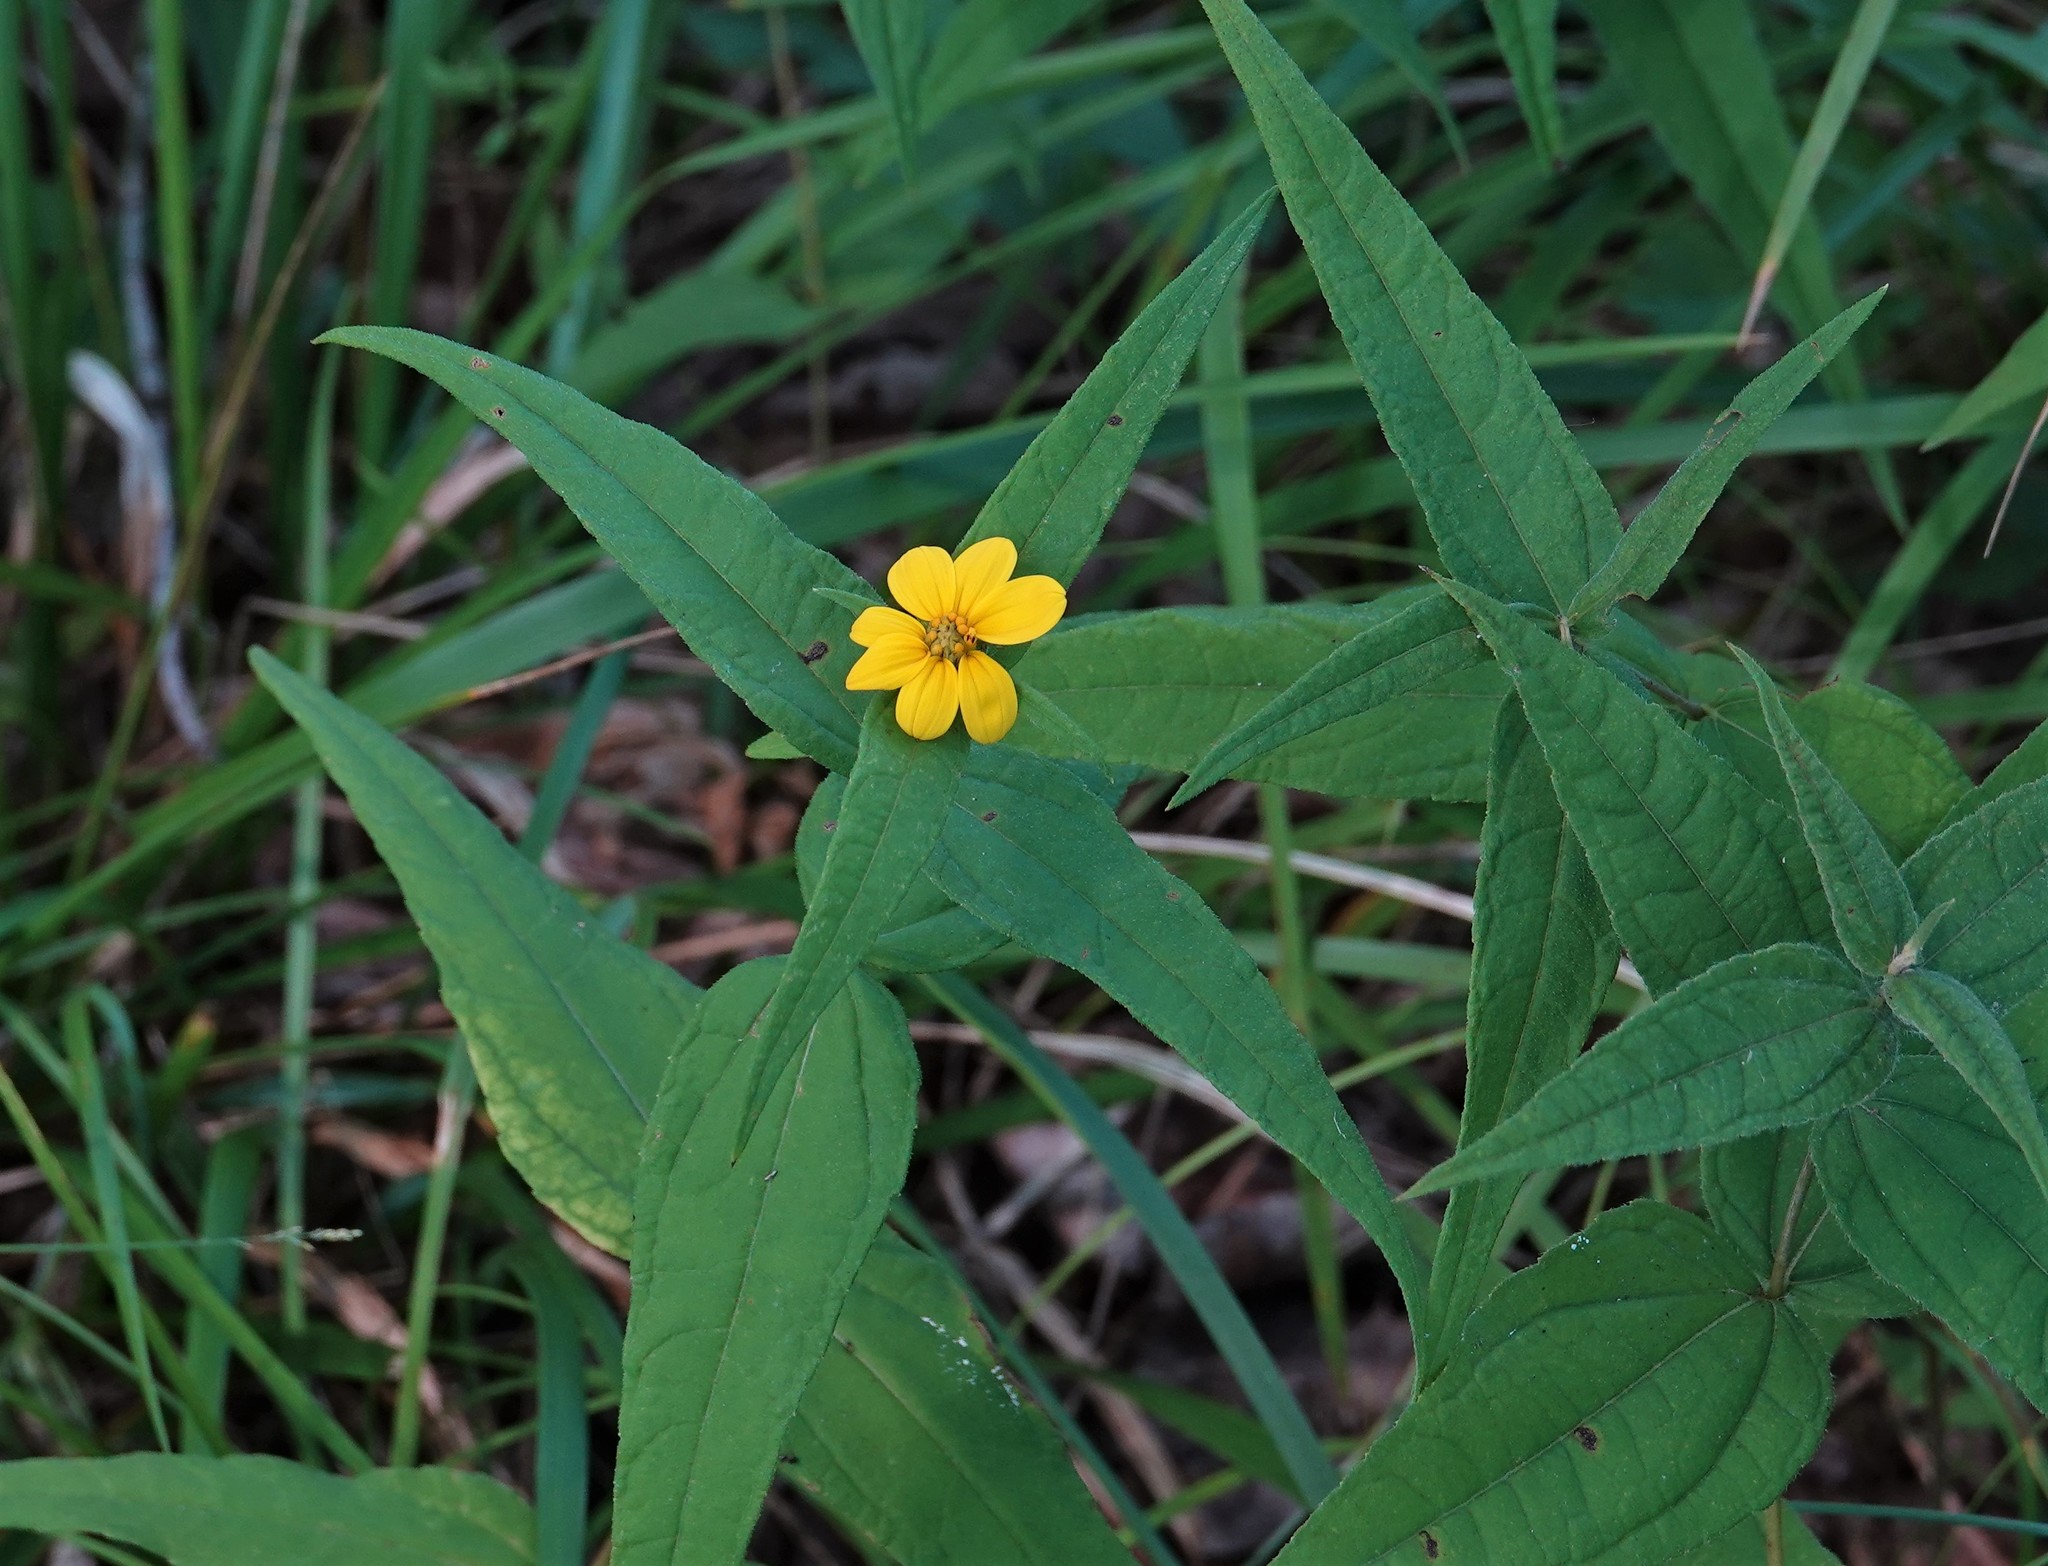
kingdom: Plantae
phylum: Tracheophyta
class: Magnoliopsida
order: Asterales
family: Asteraceae
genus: Helianthus
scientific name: Helianthus divaricatus
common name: Divergent sunflower
